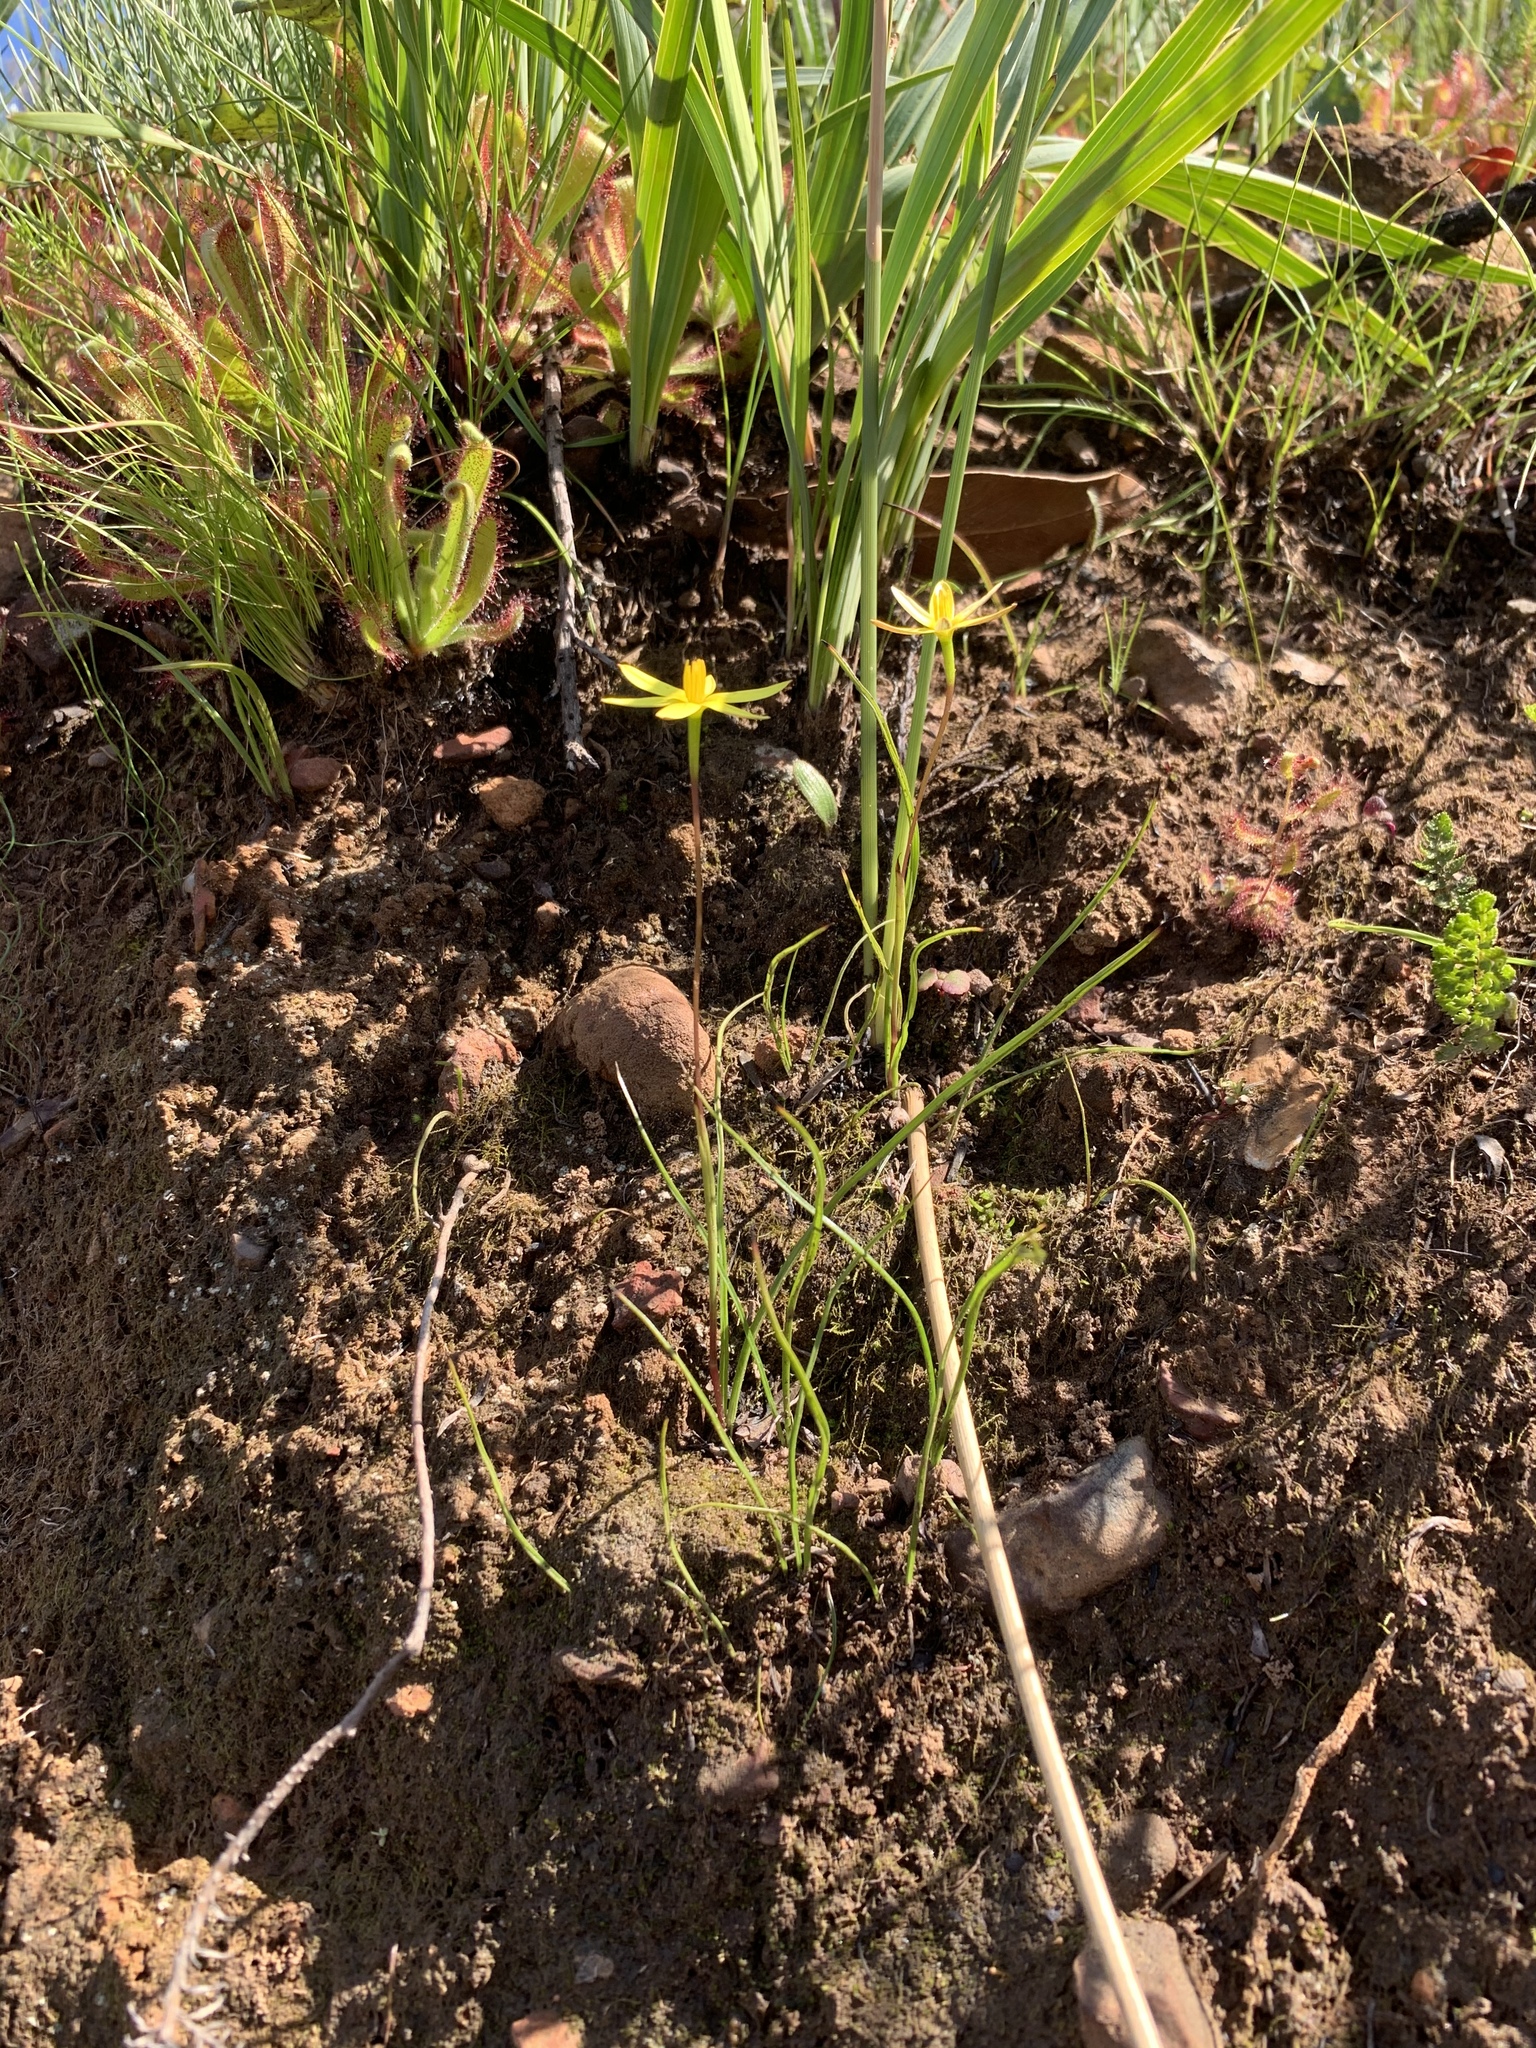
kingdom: Plantae
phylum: Tracheophyta
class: Liliopsida
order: Asparagales
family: Hypoxidaceae
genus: Pauridia
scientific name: Pauridia affinis
